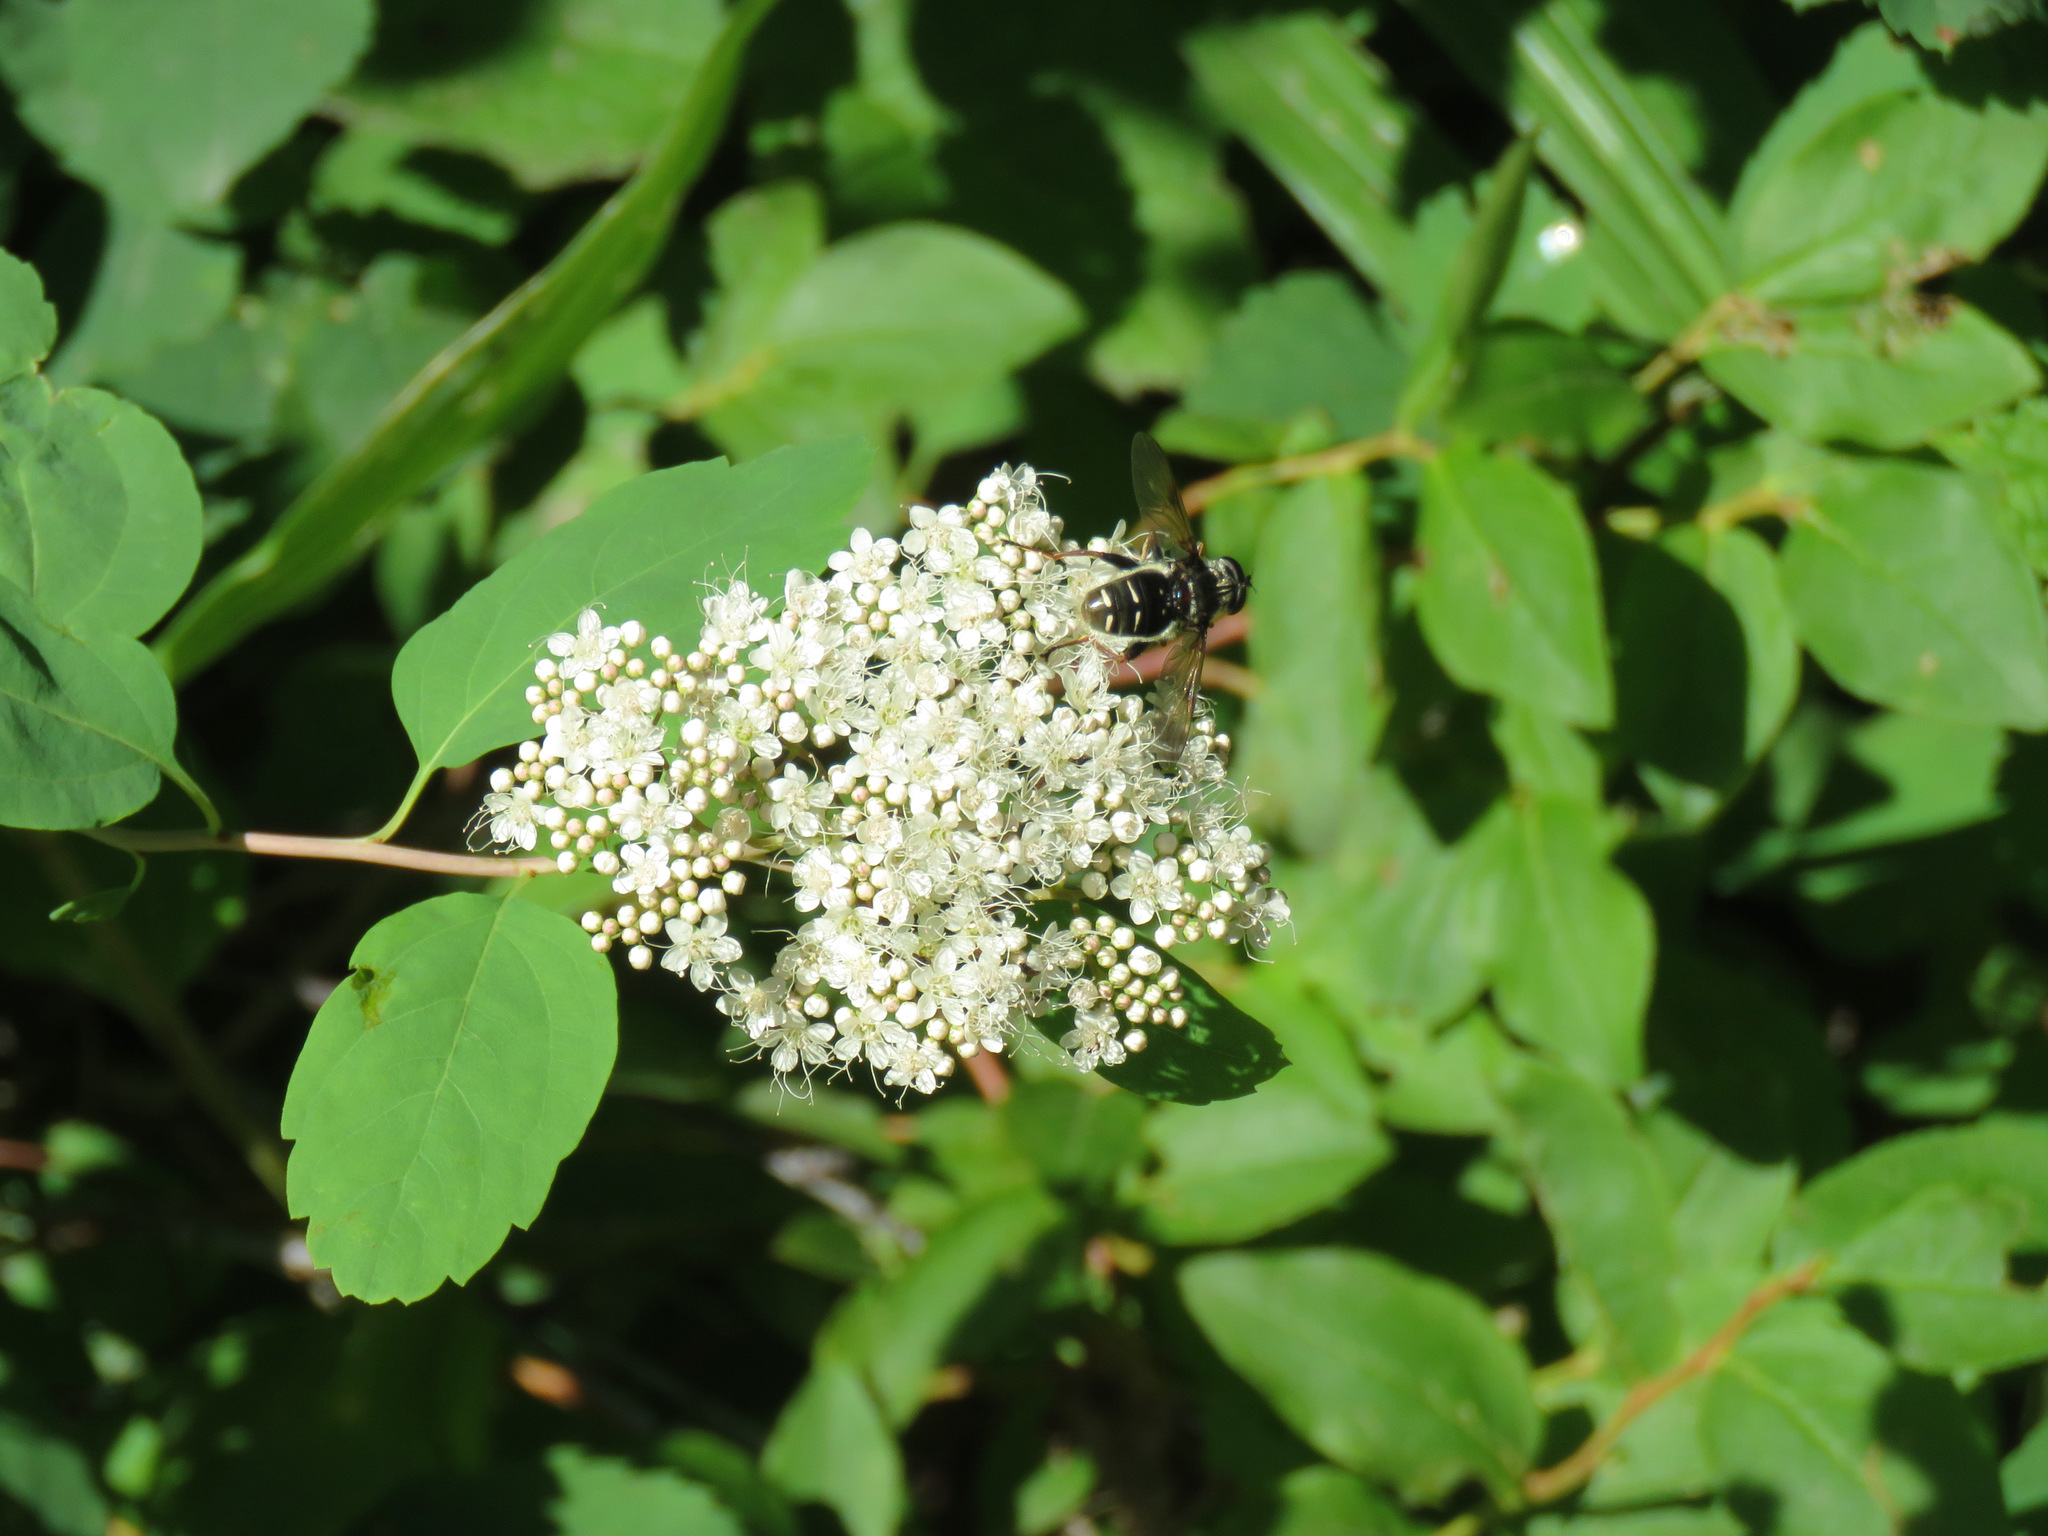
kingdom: Plantae
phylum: Tracheophyta
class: Magnoliopsida
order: Rosales
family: Rosaceae
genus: Spiraea
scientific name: Spiraea lucida
